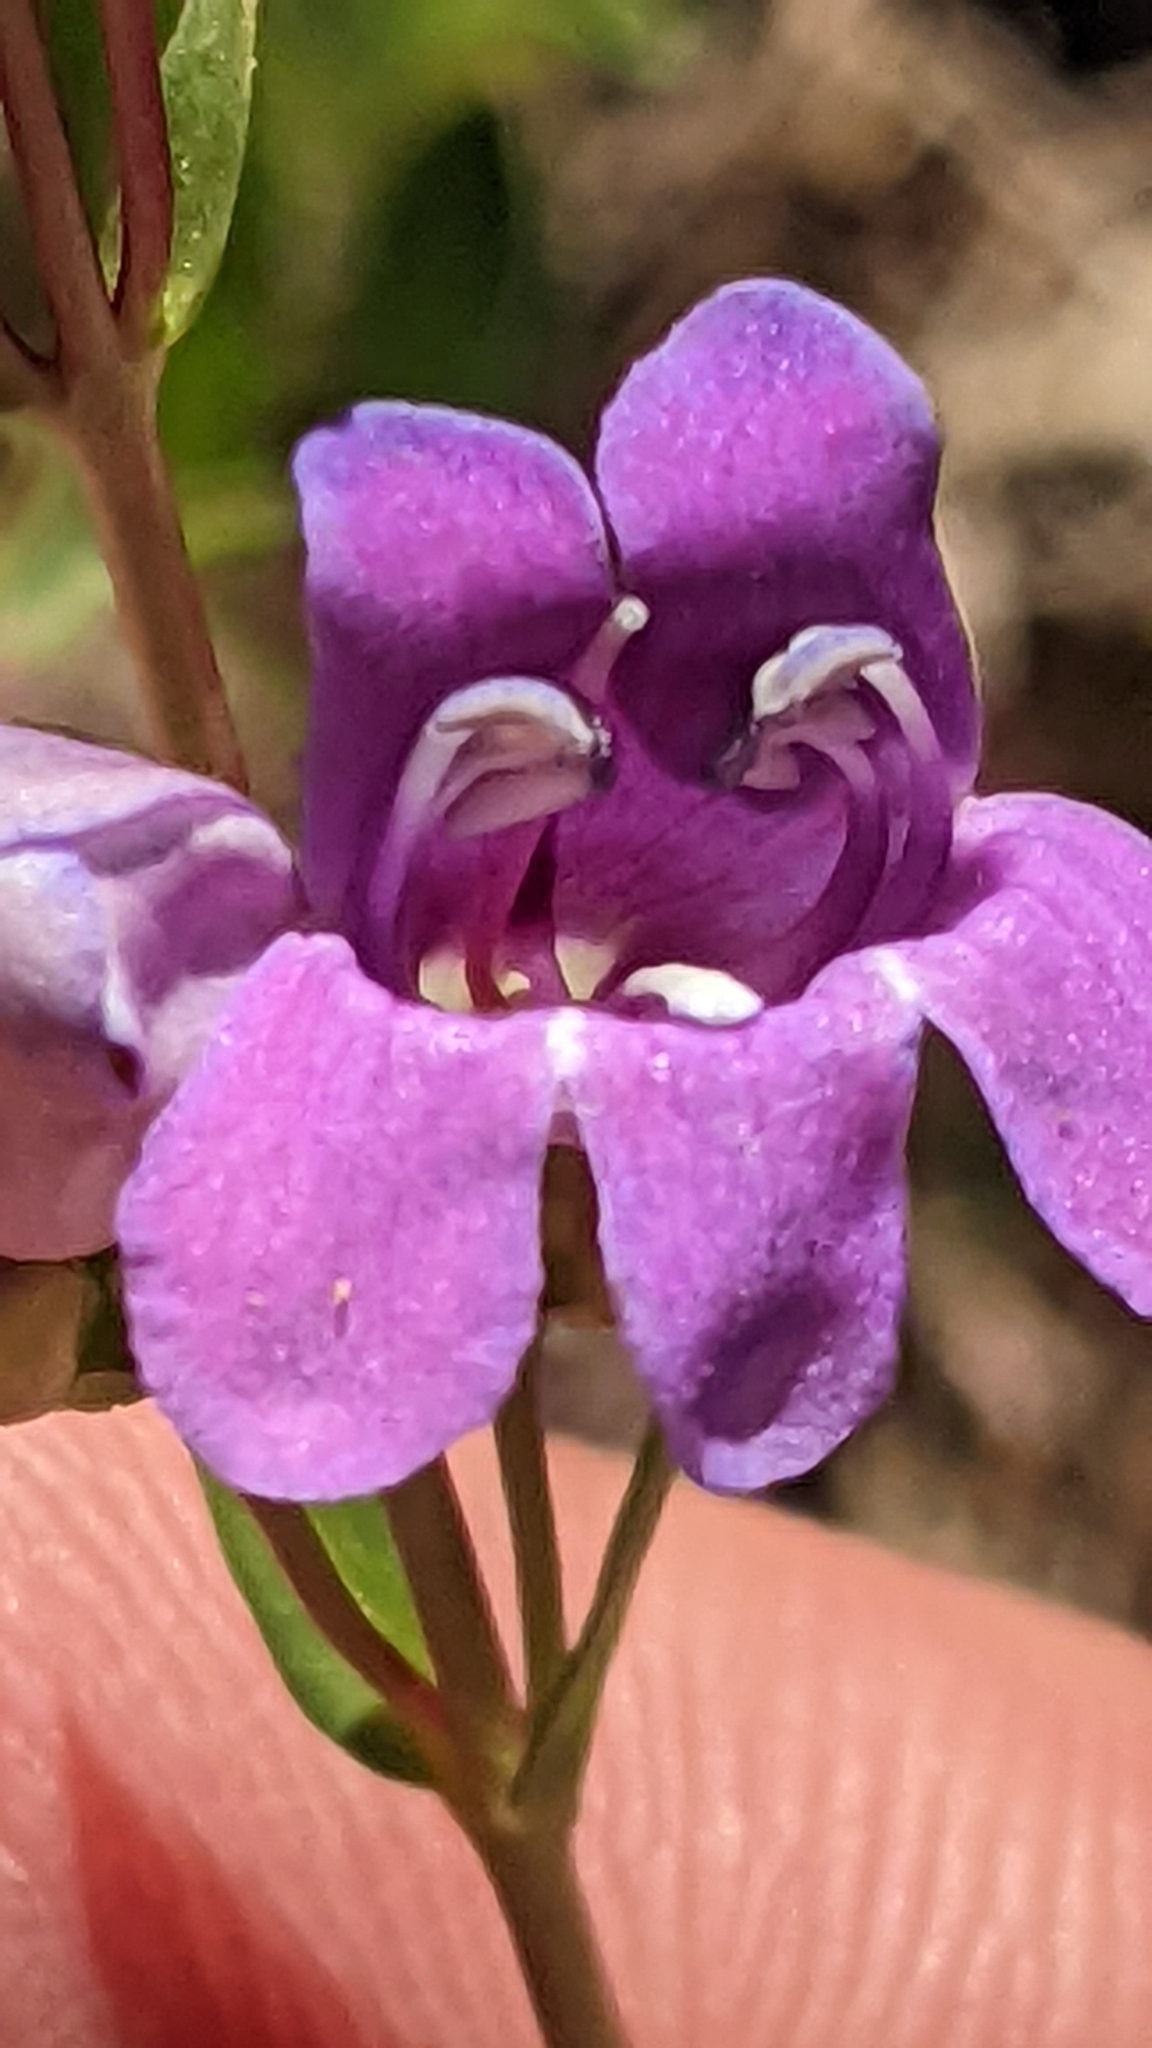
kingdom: Plantae
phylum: Tracheophyta
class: Magnoliopsida
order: Lamiales
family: Plantaginaceae
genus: Penstemon
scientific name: Penstemon leonardii
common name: Leonard's penstemon
